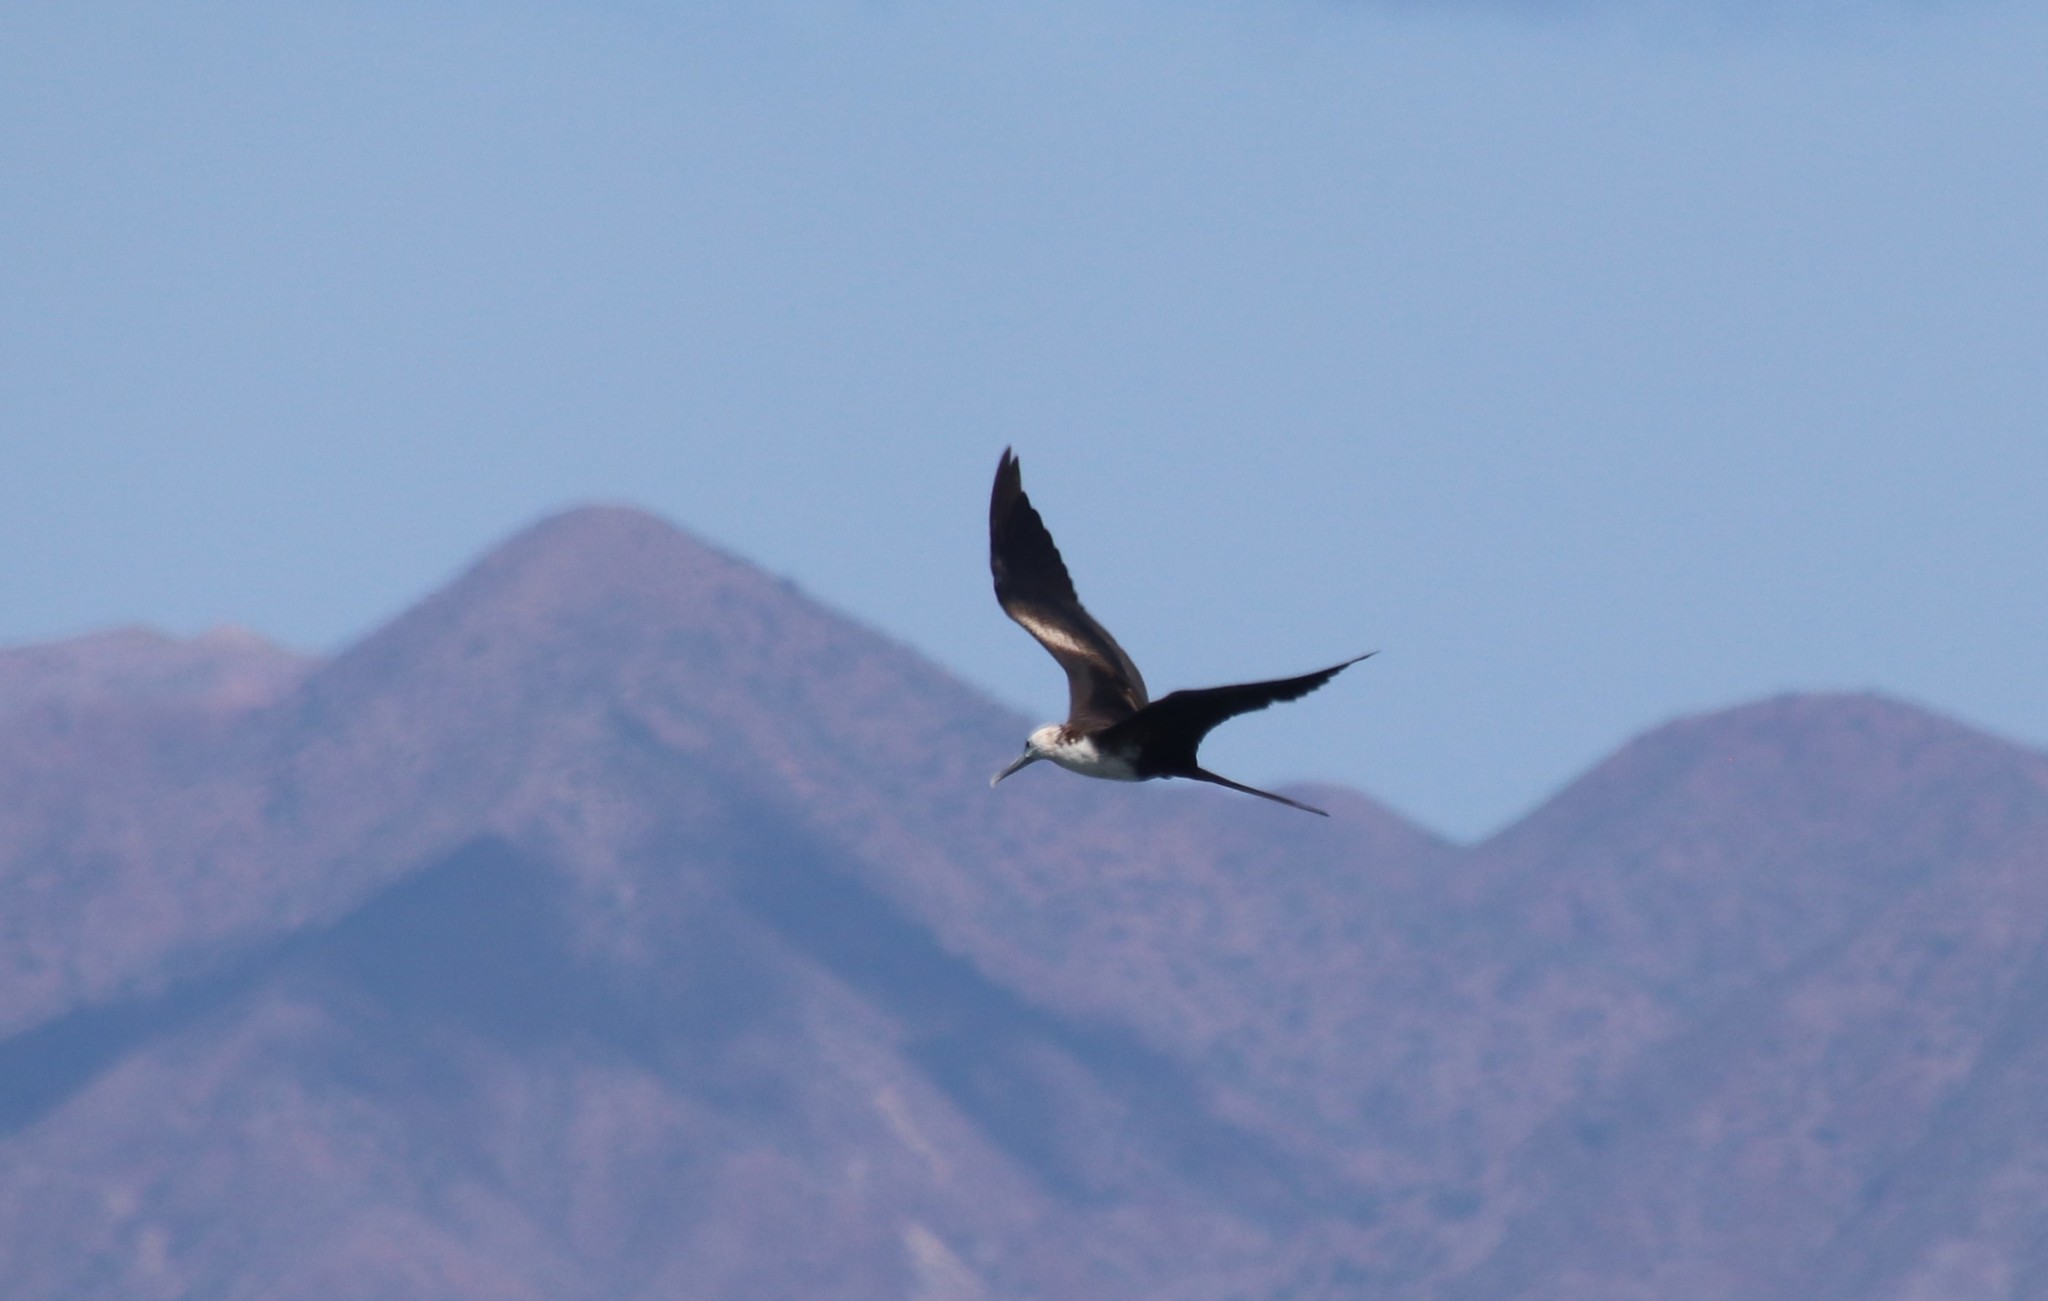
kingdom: Animalia
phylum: Chordata
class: Aves
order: Suliformes
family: Fregatidae
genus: Fregata
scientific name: Fregata magnificens
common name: Magnificent frigatebird
